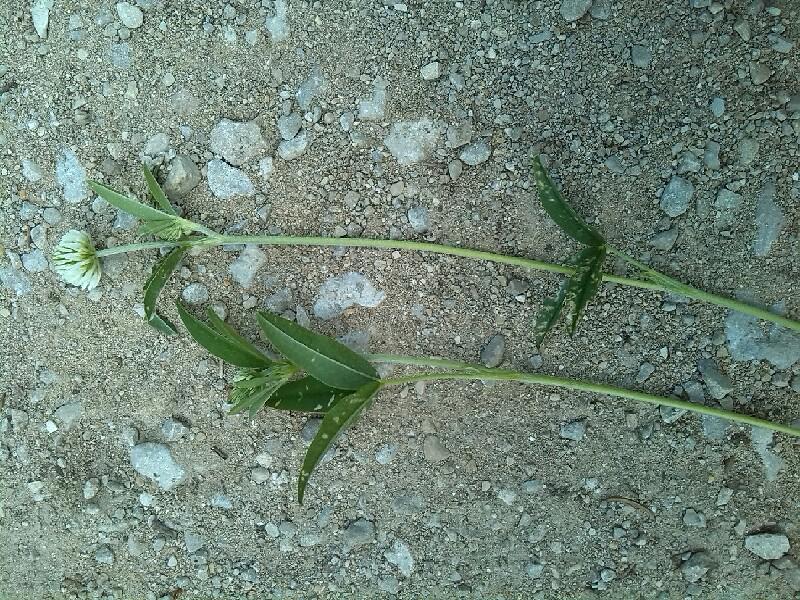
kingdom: Plantae
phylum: Tracheophyta
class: Magnoliopsida
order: Fabales
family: Fabaceae
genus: Trifolium
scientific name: Trifolium montanum
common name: Mountain clover
